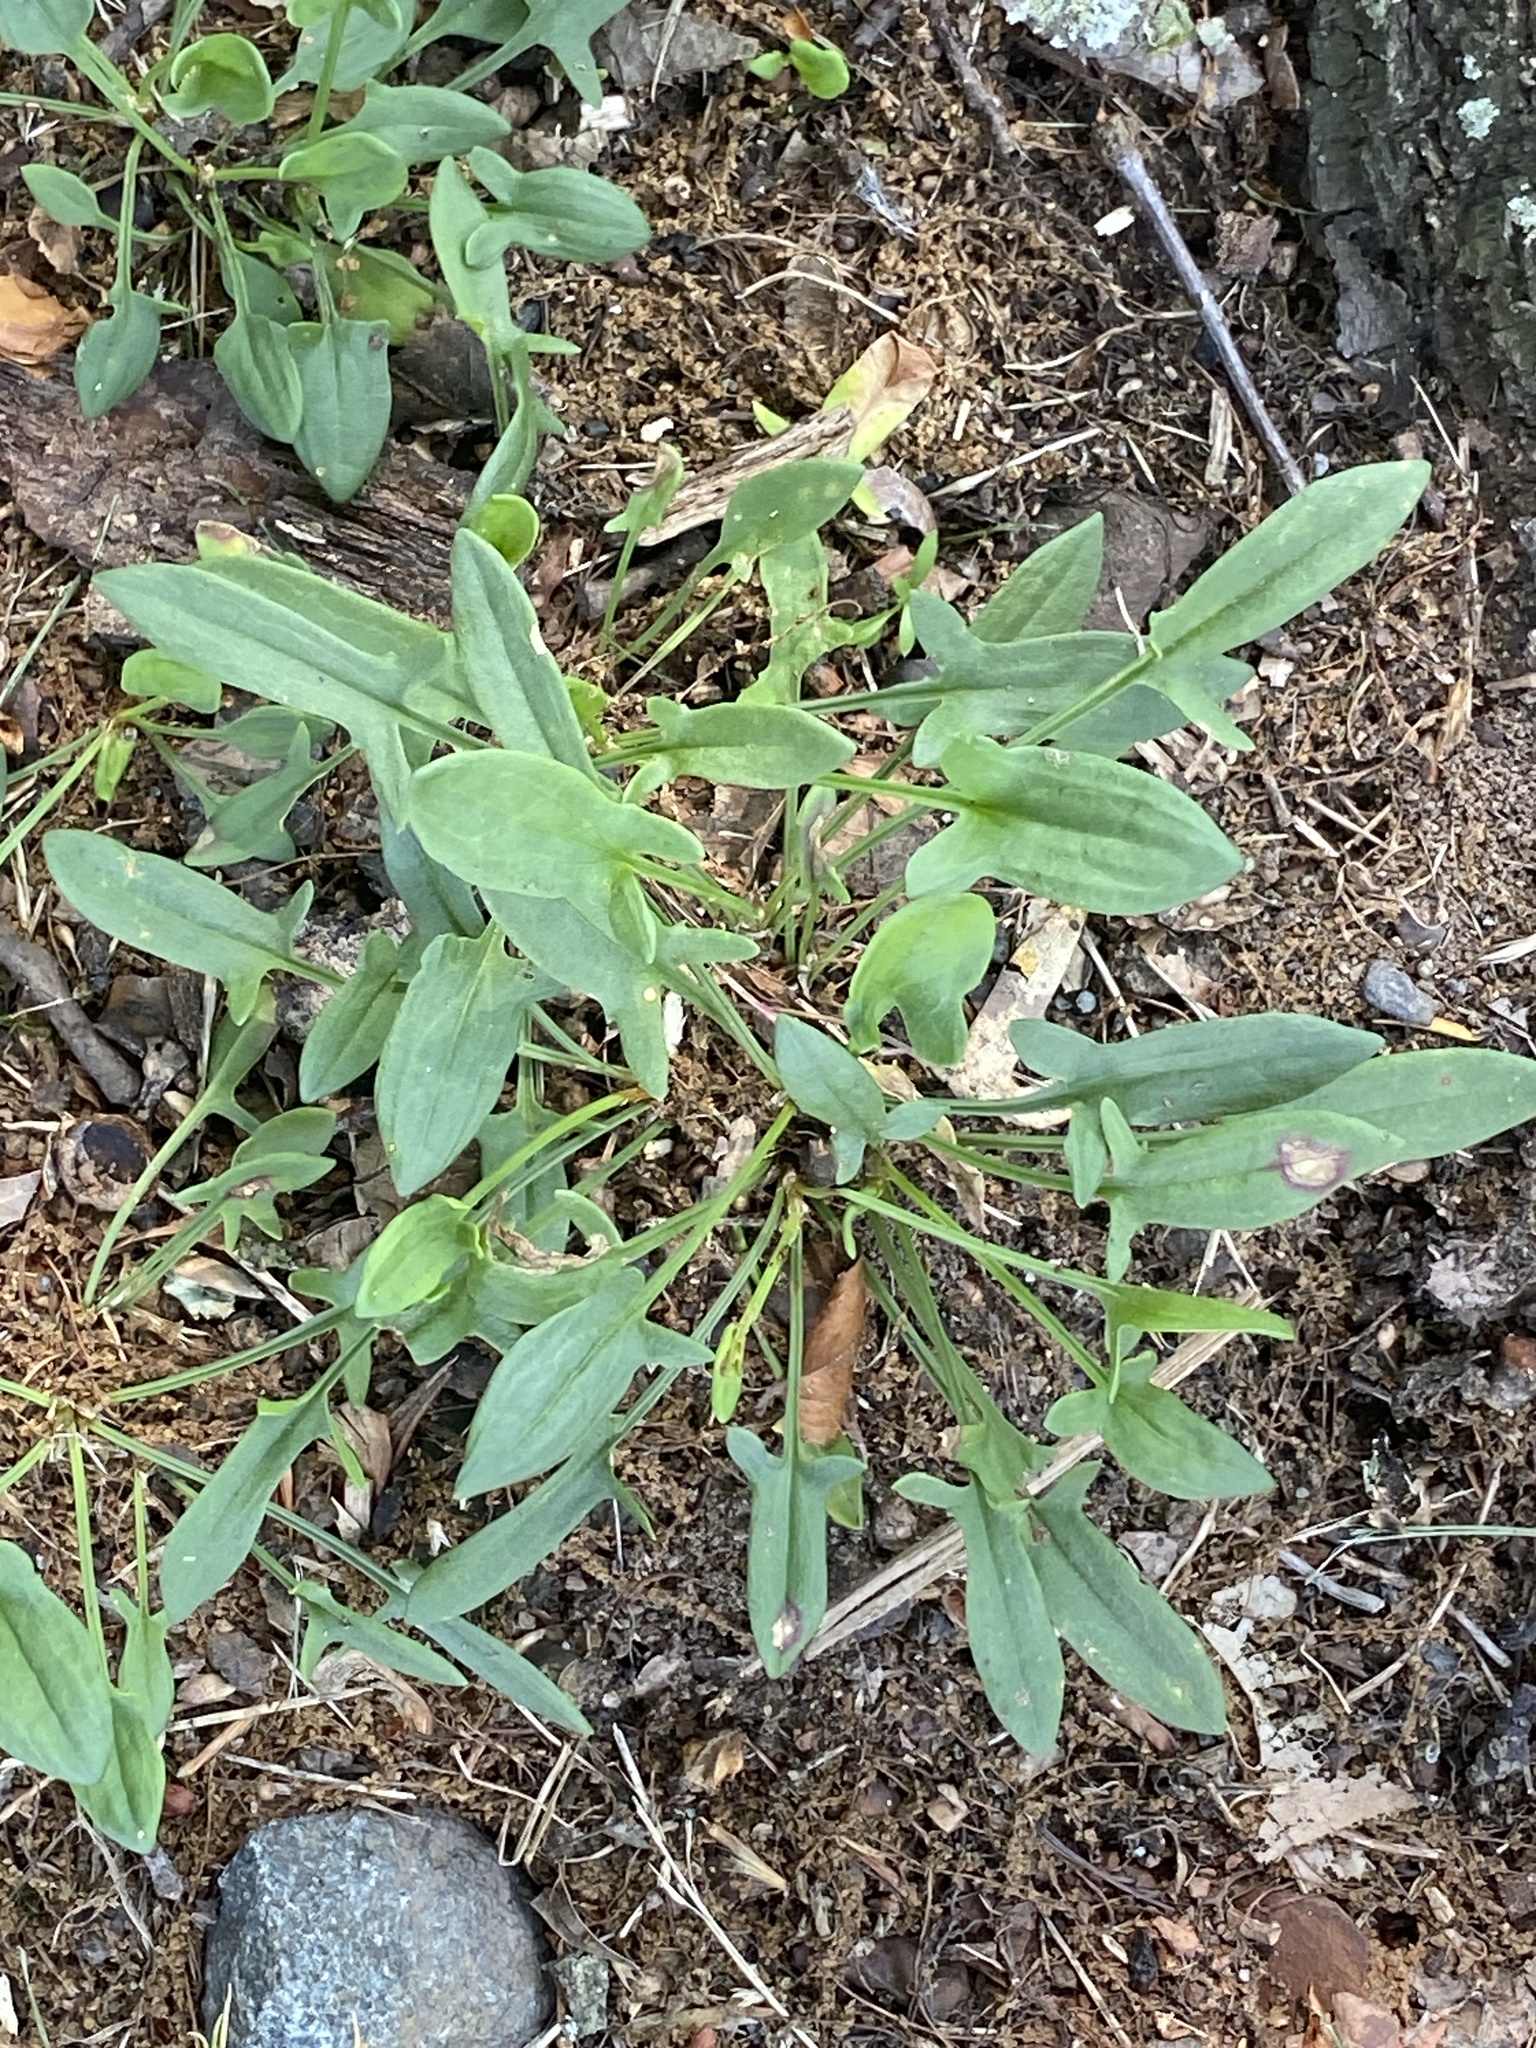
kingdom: Plantae
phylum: Tracheophyta
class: Magnoliopsida
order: Caryophyllales
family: Polygonaceae
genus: Rumex
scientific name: Rumex acetosella
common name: Common sheep sorrel
